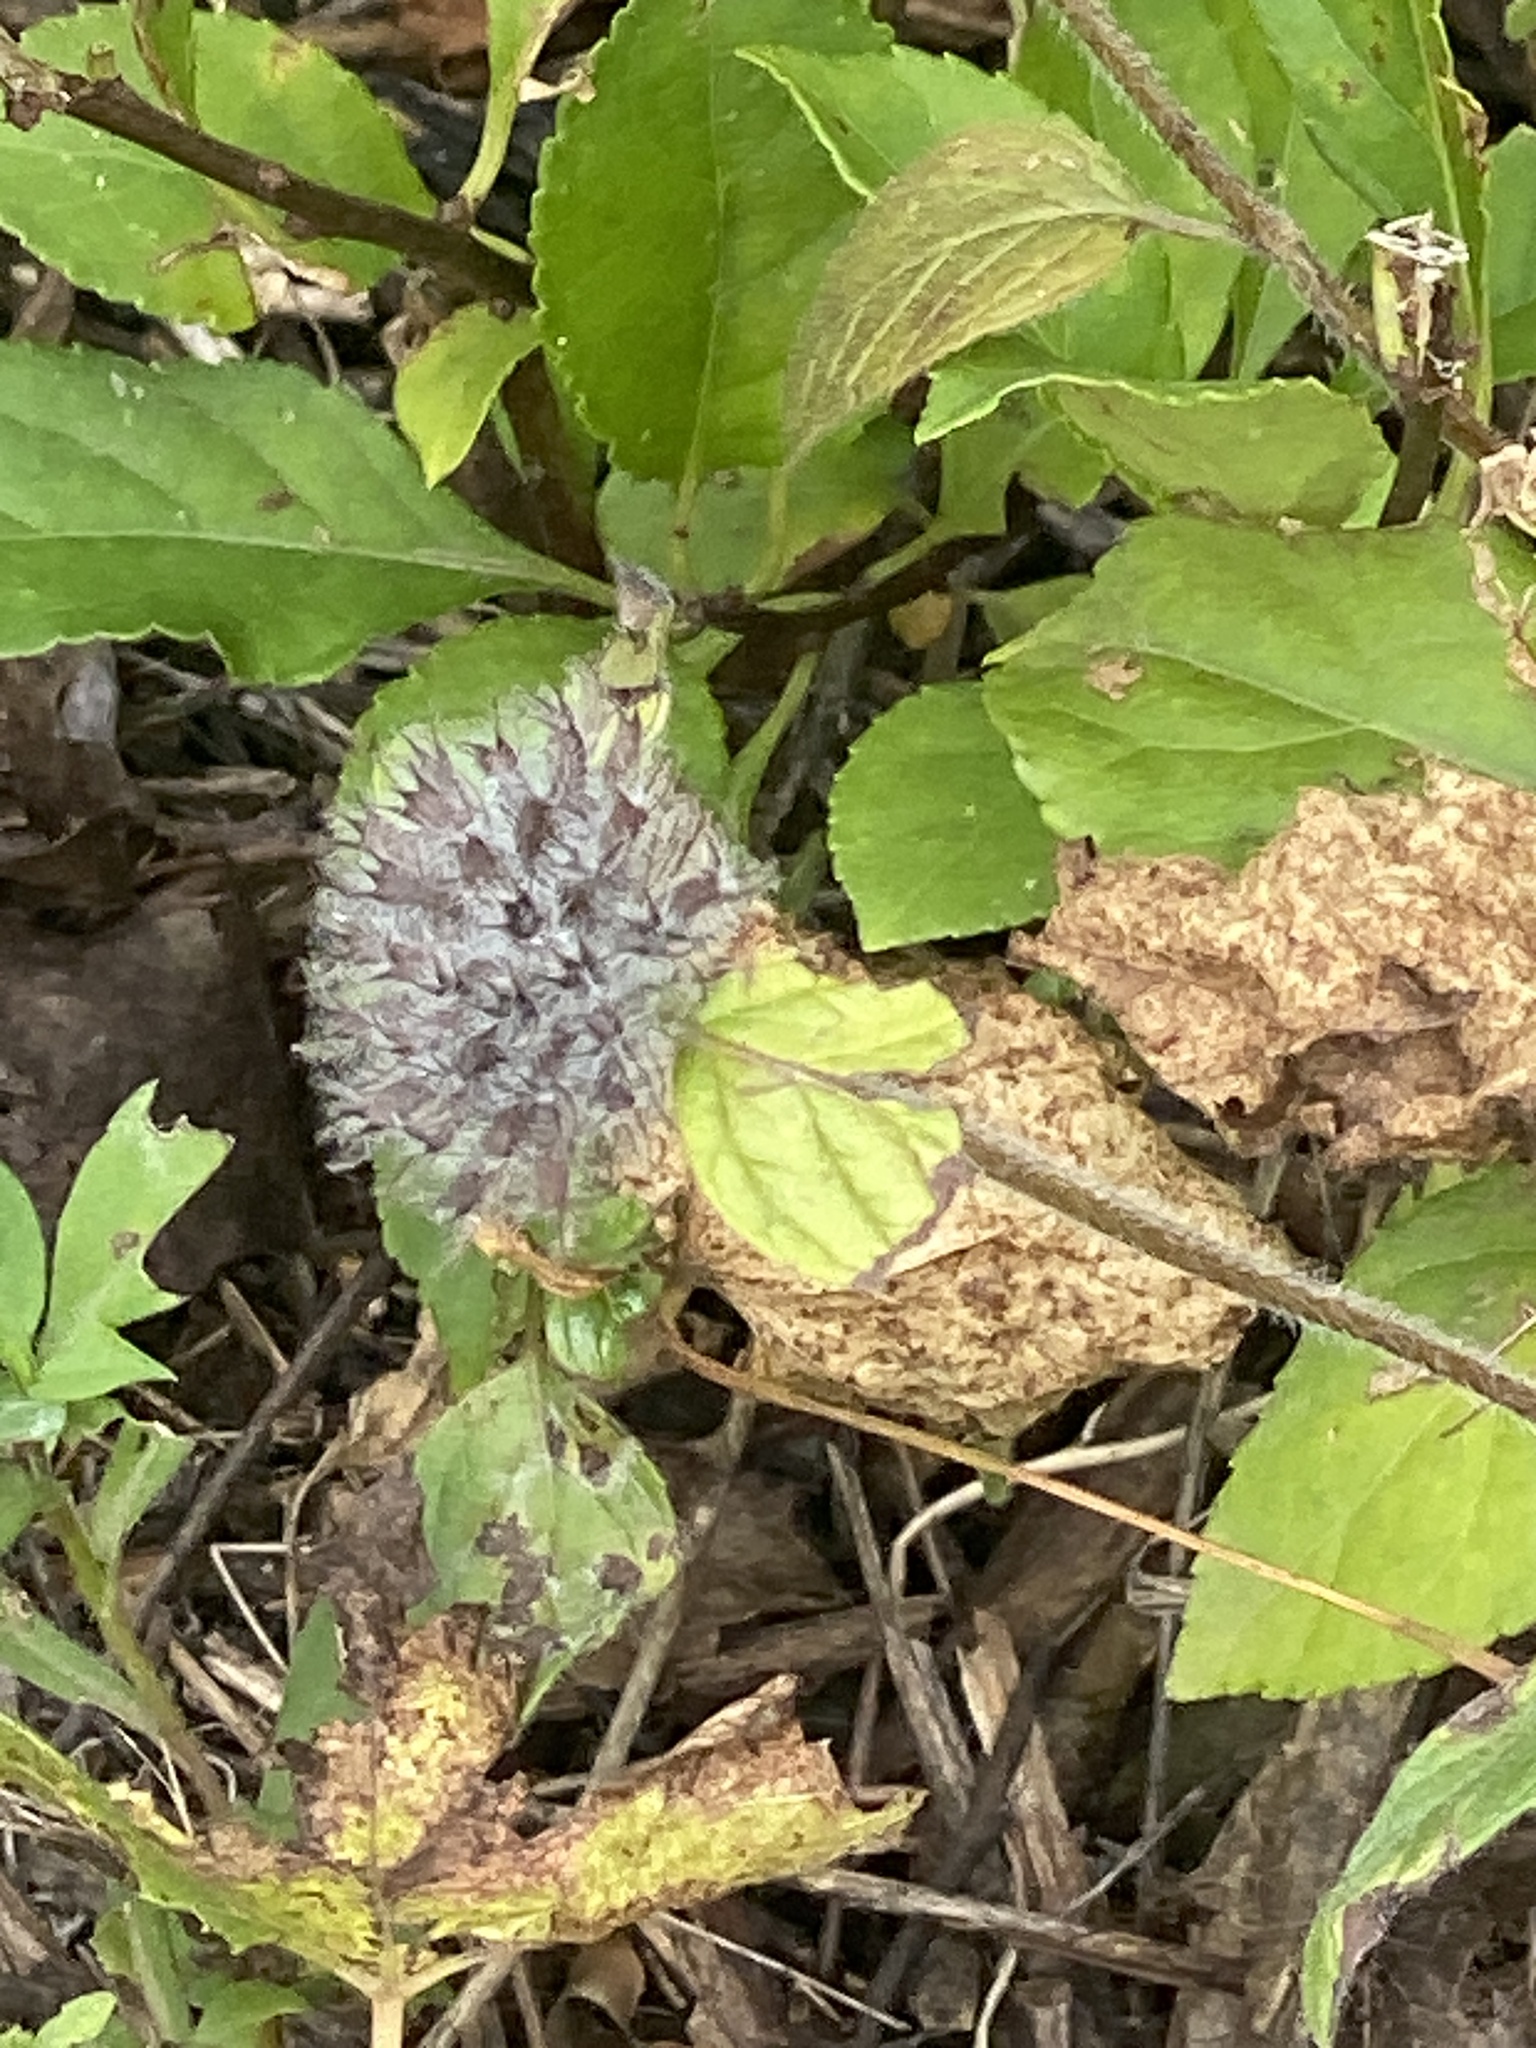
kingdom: Plantae
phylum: Tracheophyta
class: Magnoliopsida
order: Lamiales
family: Lamiaceae
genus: Clinopodium
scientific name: Clinopodium vulgare
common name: Wild basil
